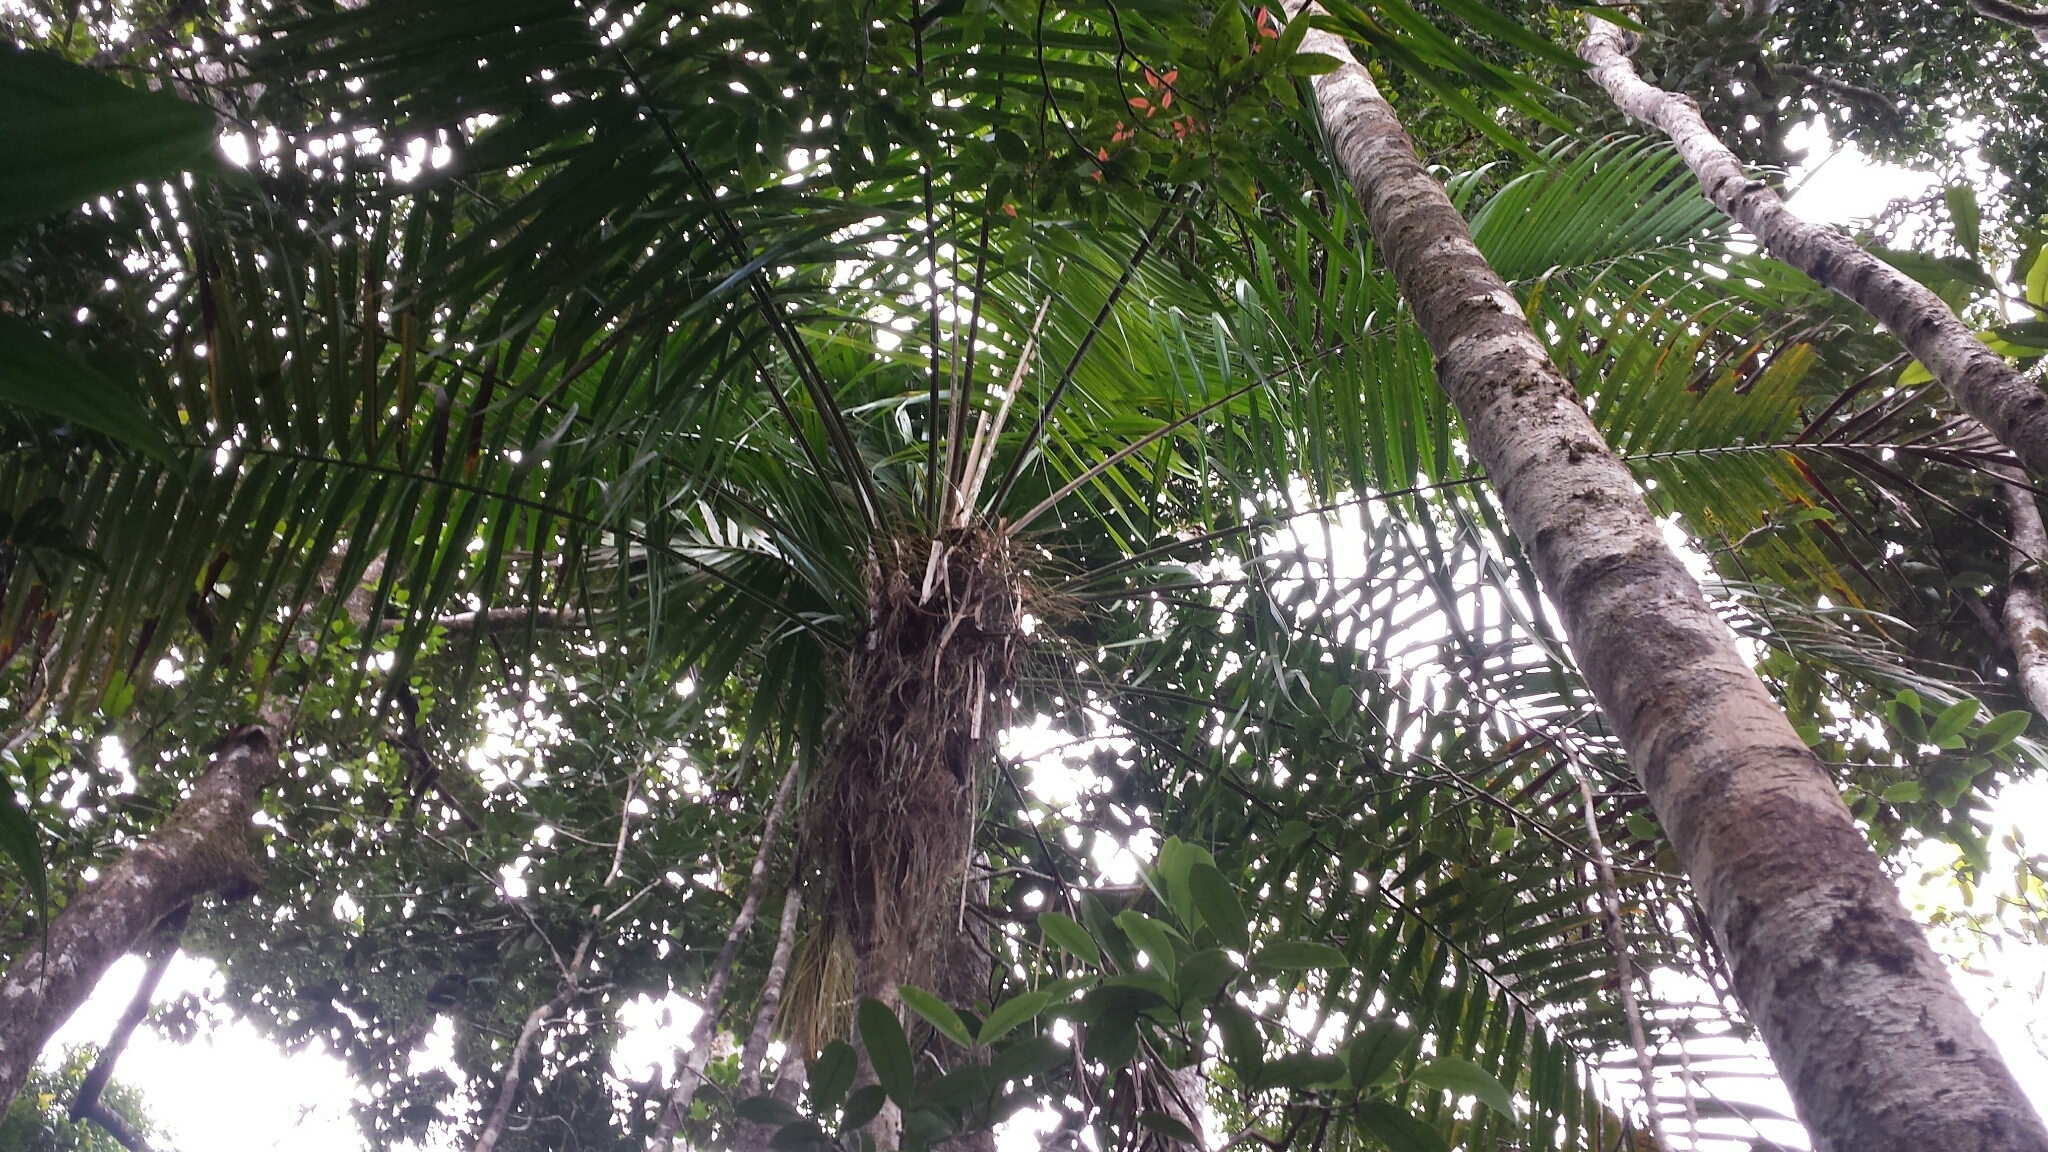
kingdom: Plantae
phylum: Tracheophyta
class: Liliopsida
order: Arecales
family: Arecaceae
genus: Dypsis
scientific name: Dypsis fibrosa
